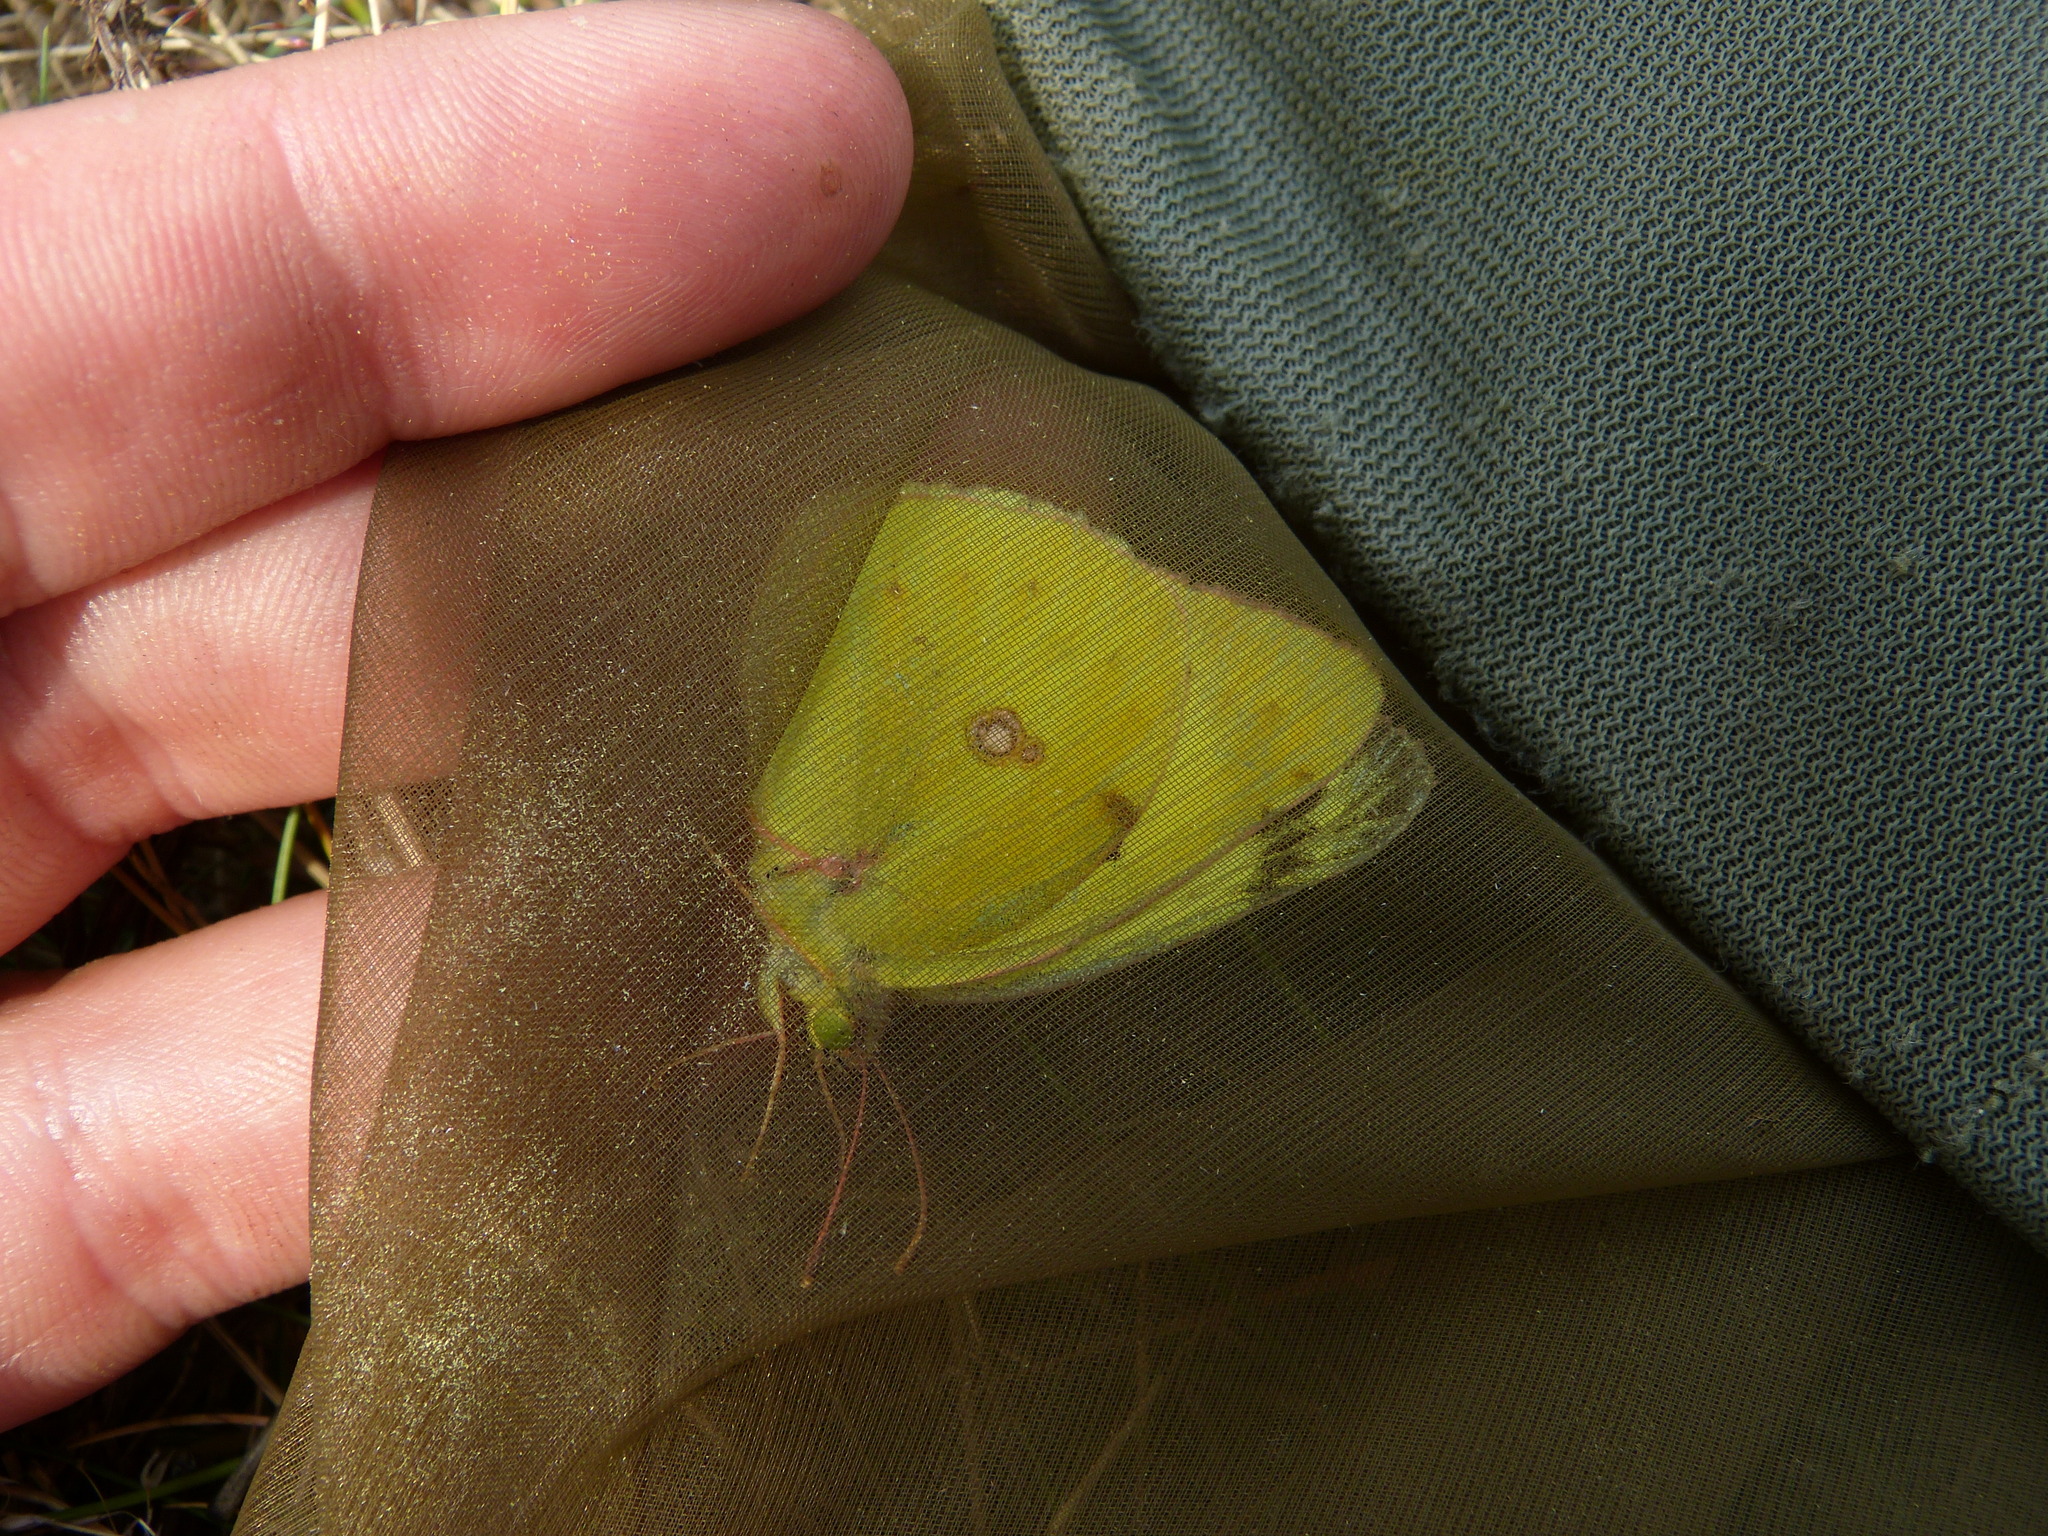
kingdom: Animalia
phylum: Arthropoda
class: Insecta
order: Lepidoptera
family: Pieridae
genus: Colias
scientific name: Colias alfacariensis
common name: Berger's clouded yellow
